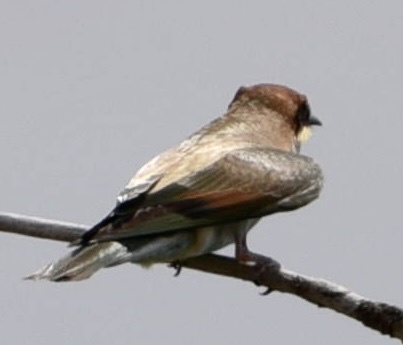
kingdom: Animalia
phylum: Chordata
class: Aves
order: Coraciiformes
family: Meropidae
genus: Merops
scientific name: Merops apiaster
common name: European bee-eater
